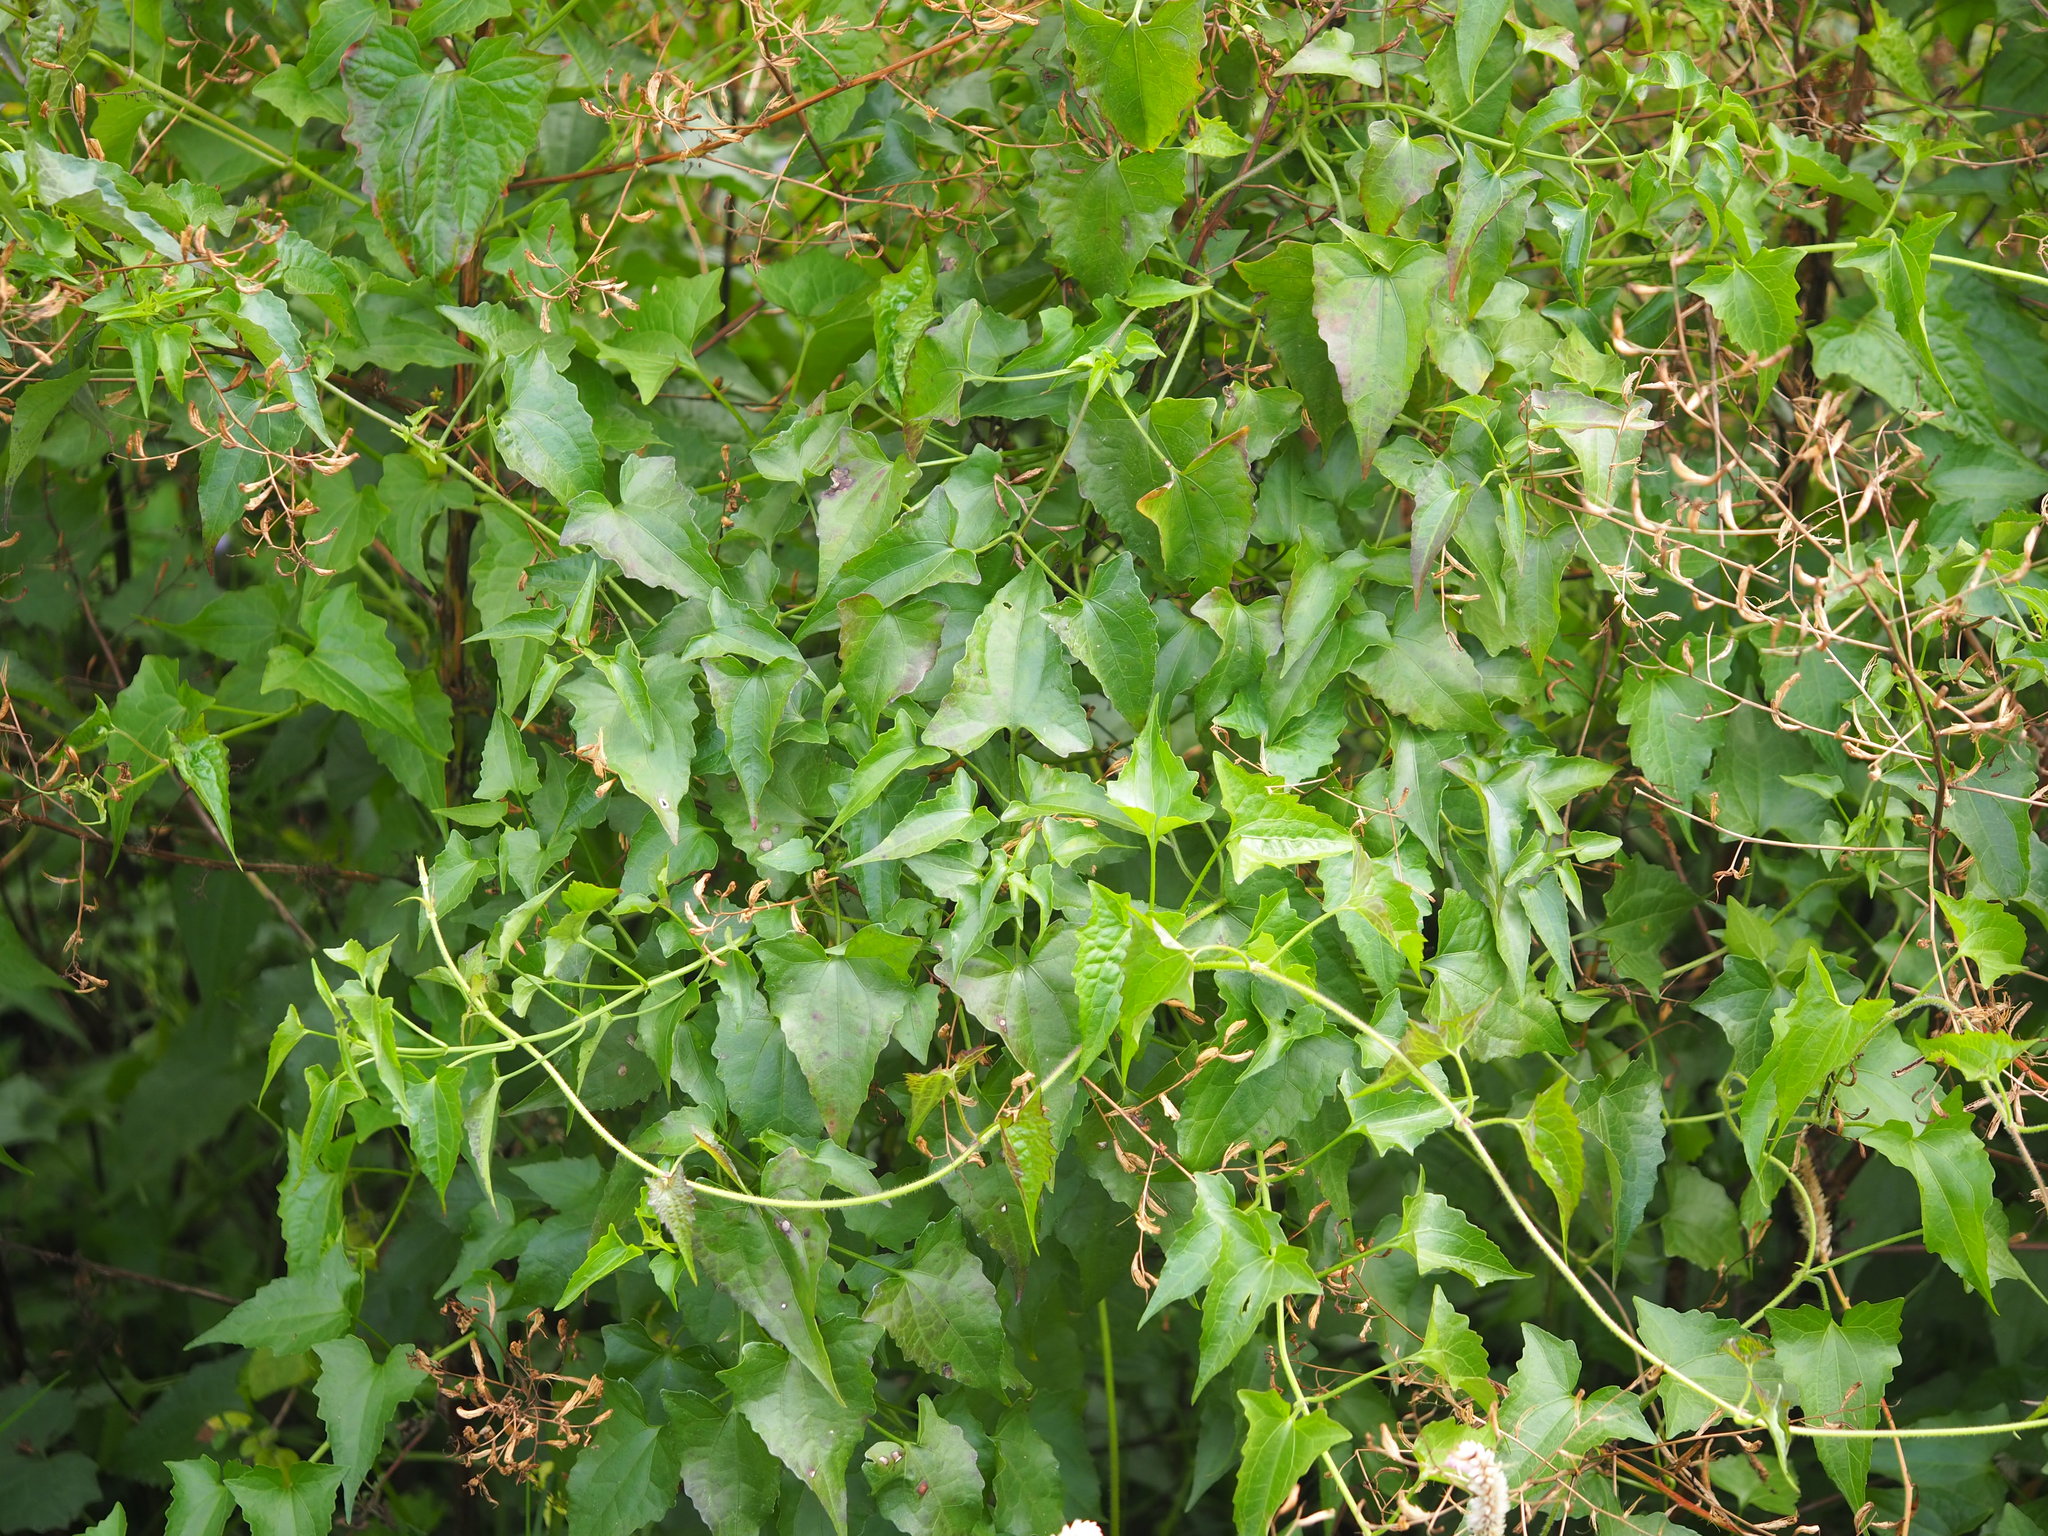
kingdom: Plantae
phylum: Tracheophyta
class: Magnoliopsida
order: Asterales
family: Asteraceae
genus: Mikania
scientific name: Mikania micrantha
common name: Mile-a-minute
